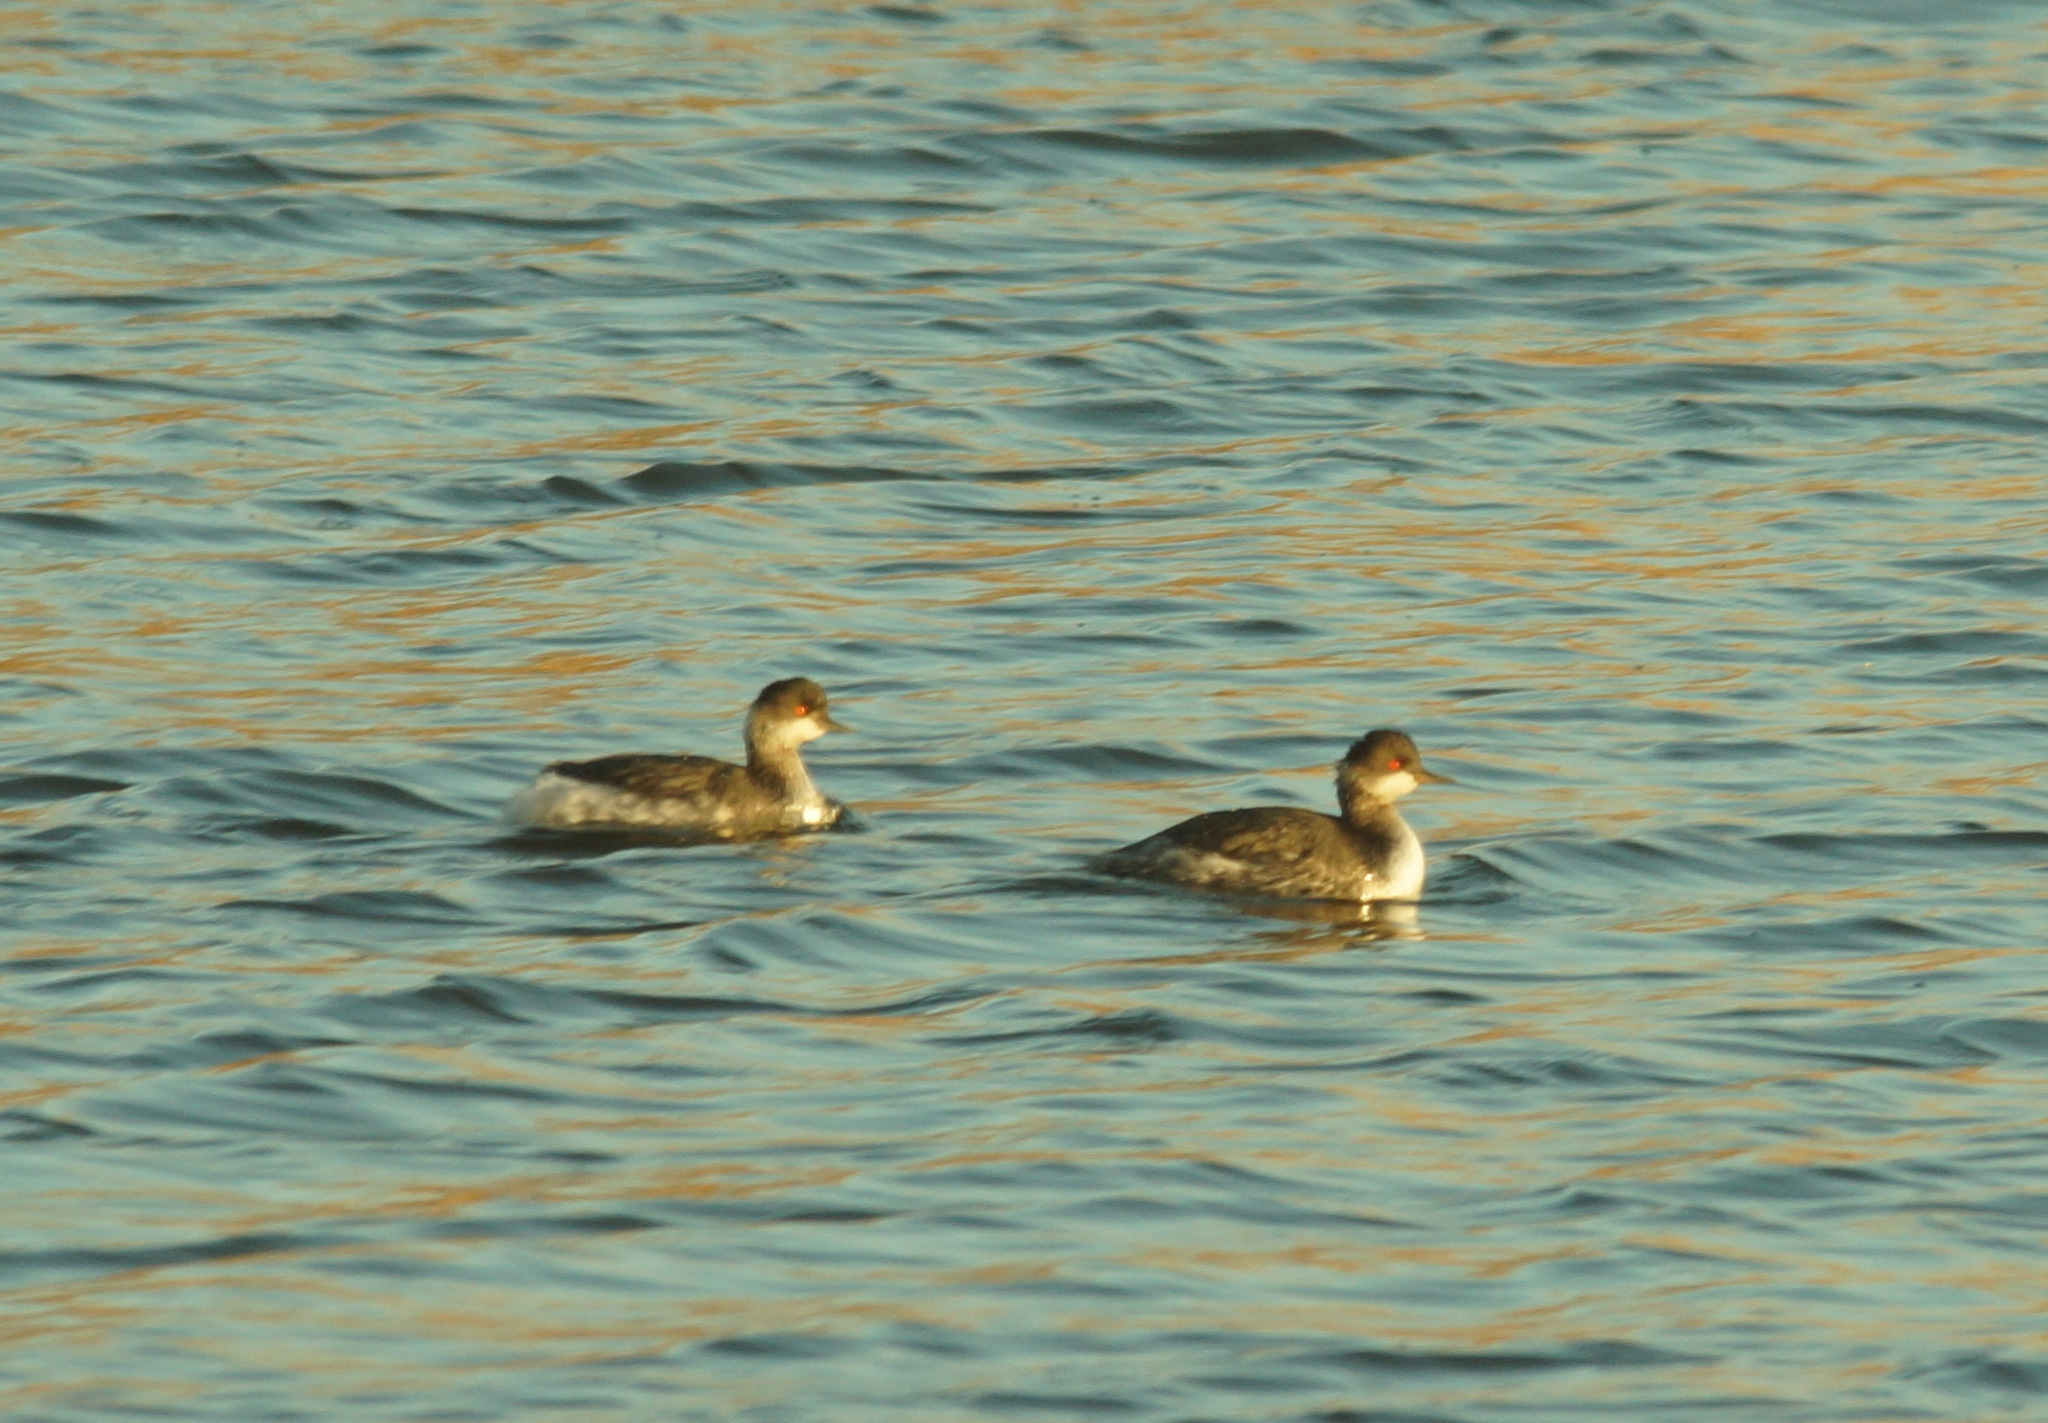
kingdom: Animalia
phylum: Chordata
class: Aves
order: Podicipediformes
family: Podicipedidae
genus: Podiceps
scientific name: Podiceps nigricollis
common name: Black-necked grebe
